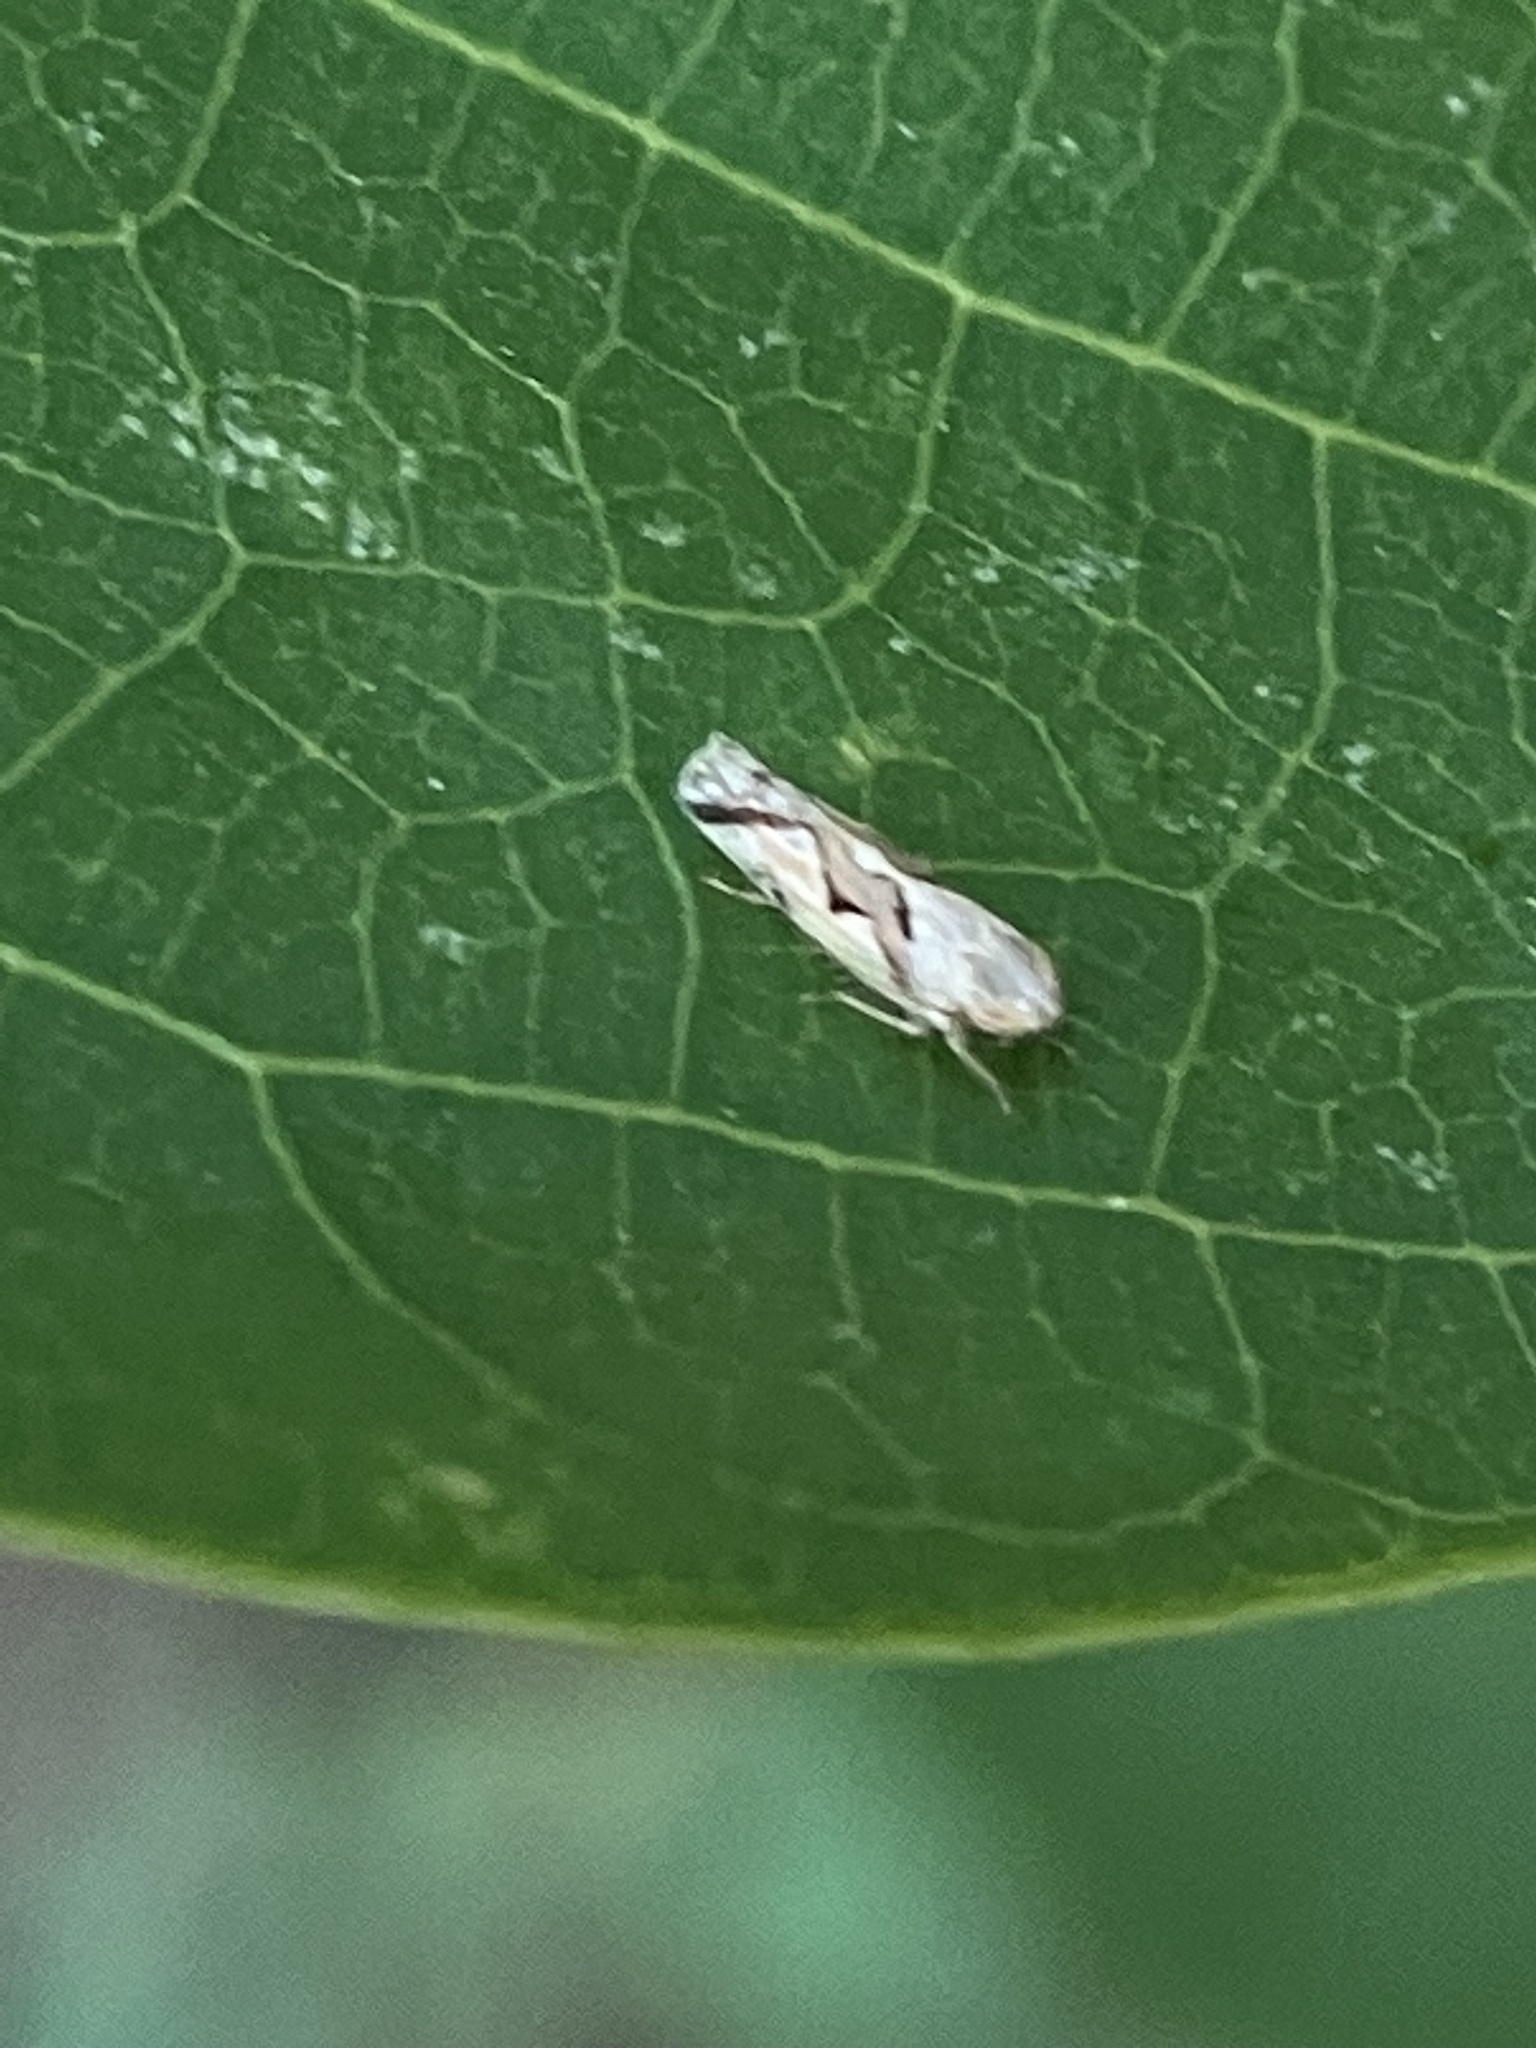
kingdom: Animalia
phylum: Arthropoda
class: Insecta
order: Hemiptera
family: Cicadellidae
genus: Maiestas
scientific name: Maiestas dorsalis
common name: Zig-zag leafhopper
